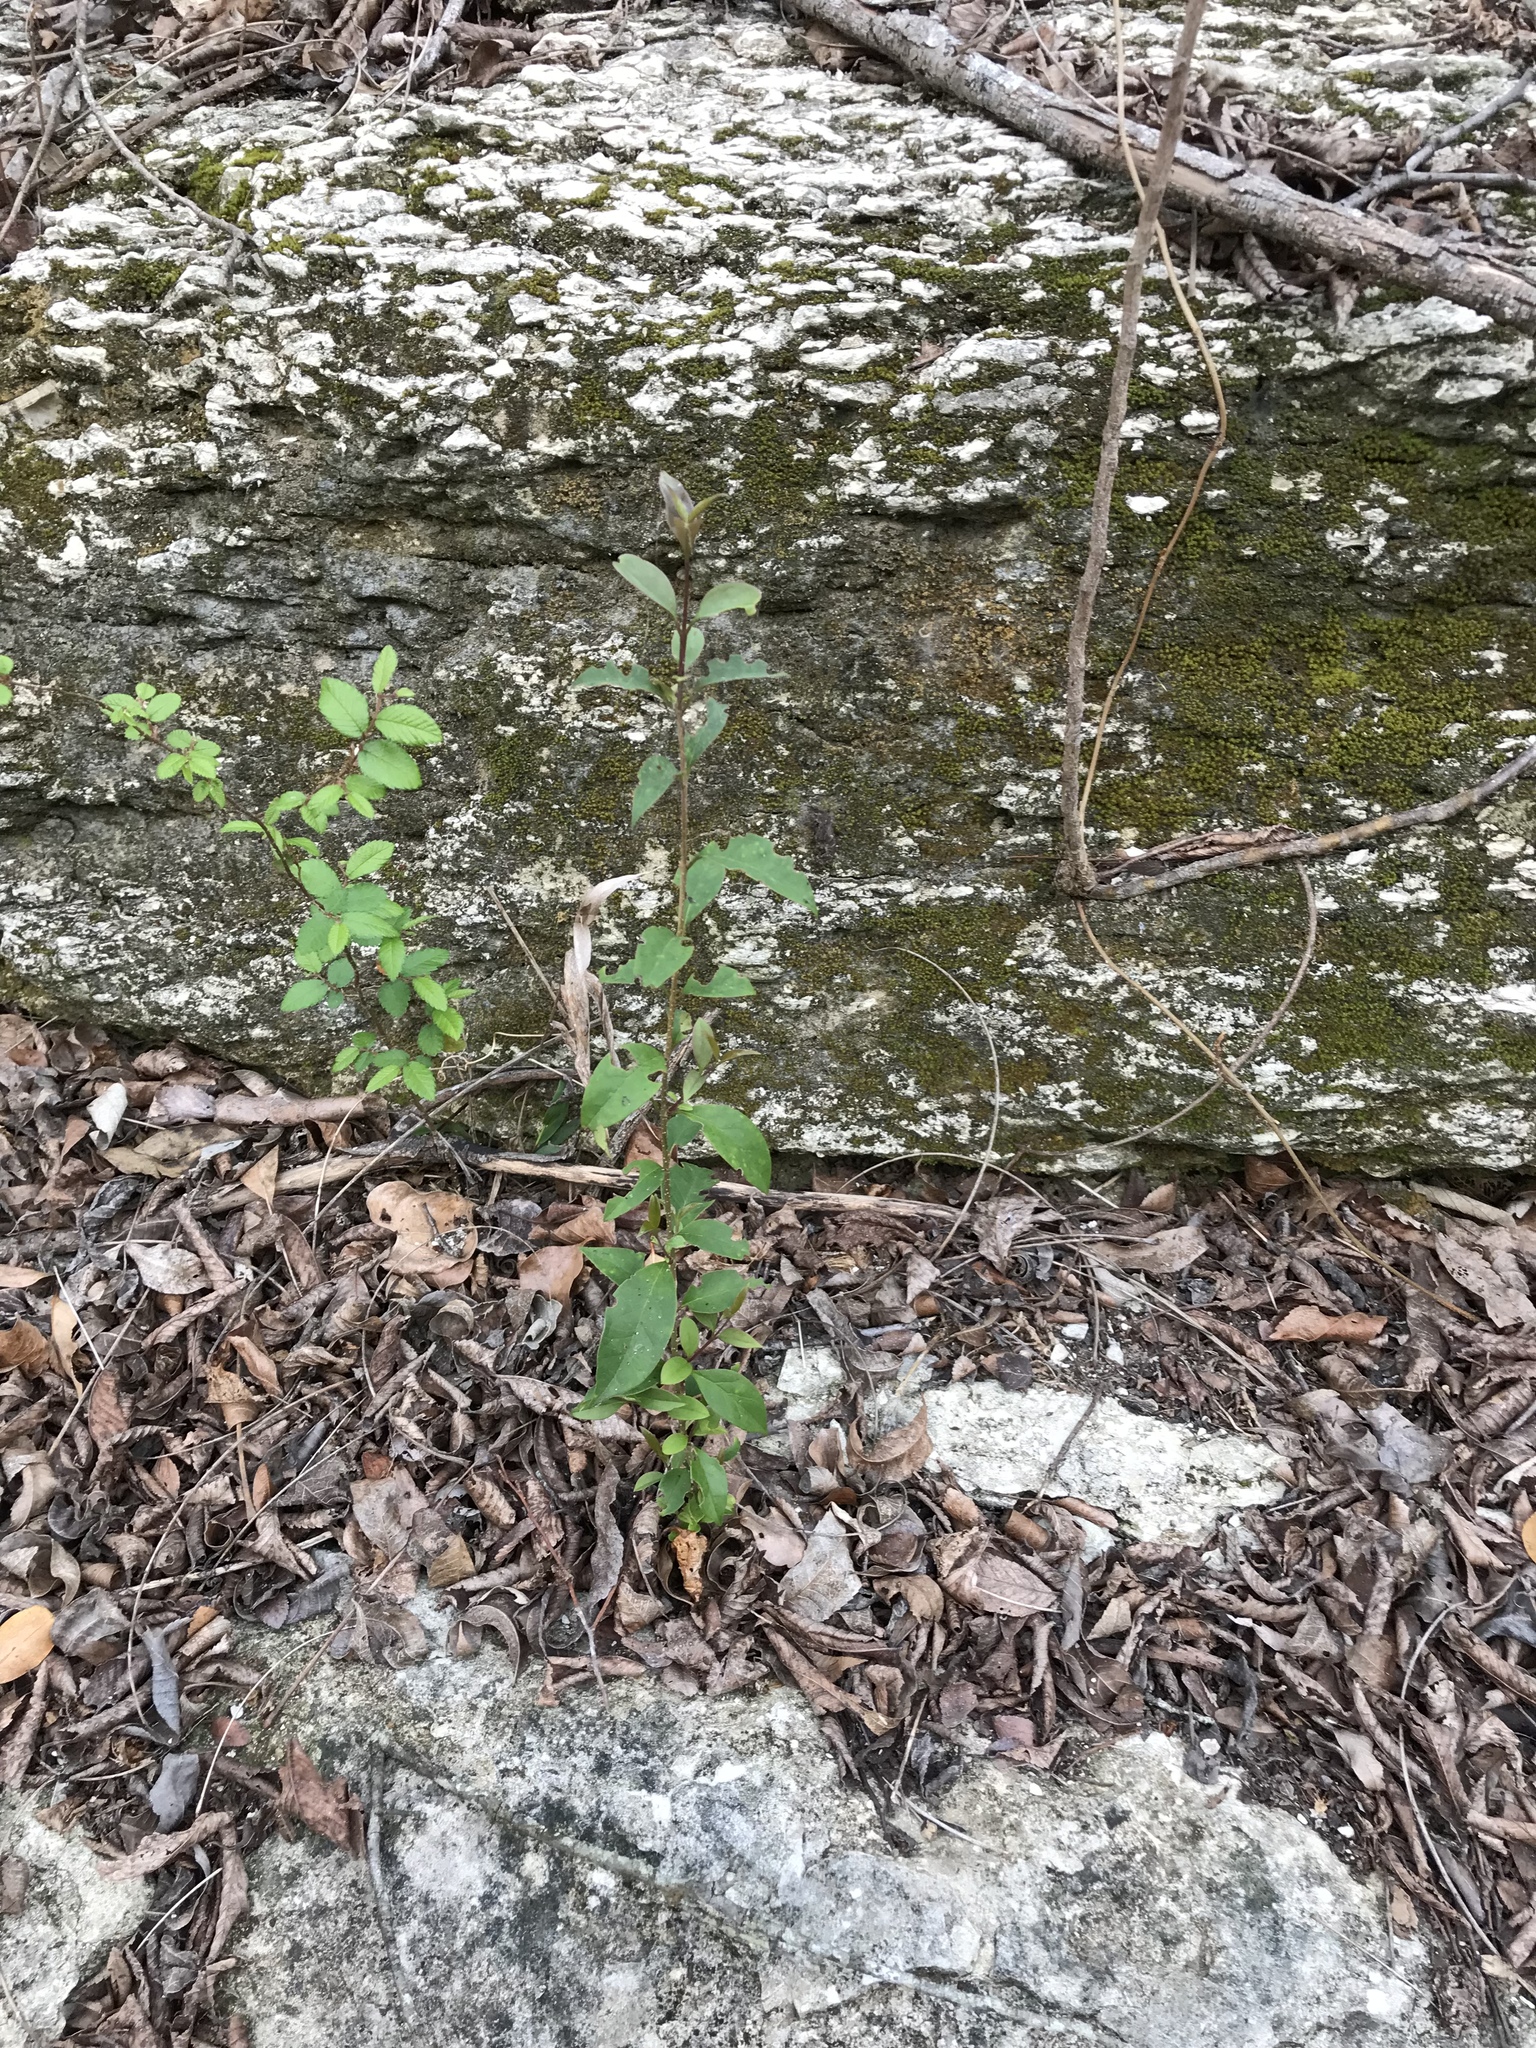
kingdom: Plantae
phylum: Tracheophyta
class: Magnoliopsida
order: Lamiales
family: Oleaceae
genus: Ligustrum
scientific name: Ligustrum lucidum
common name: Glossy privet
